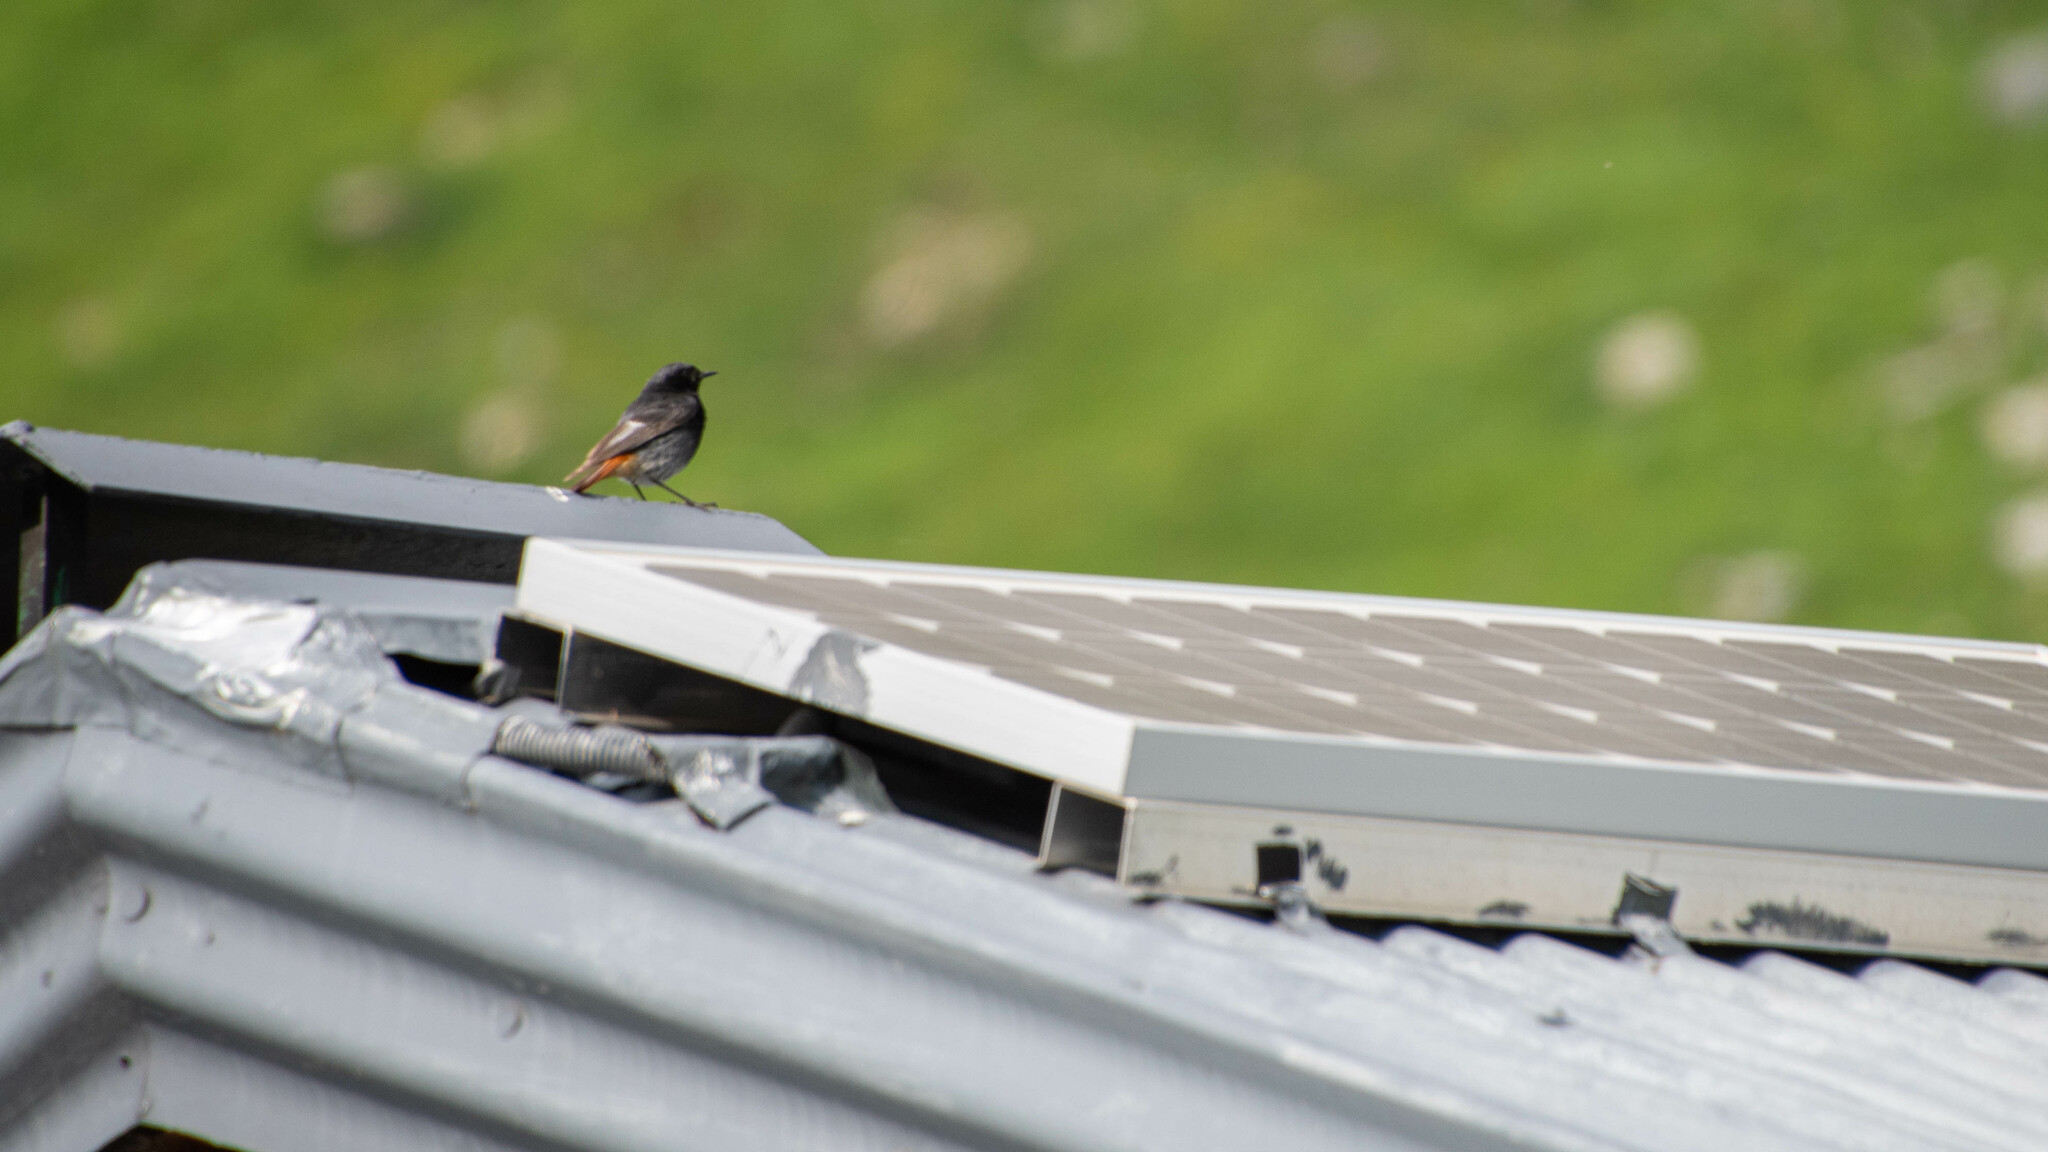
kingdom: Animalia
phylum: Chordata
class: Aves
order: Passeriformes
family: Muscicapidae
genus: Phoenicurus
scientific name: Phoenicurus ochruros
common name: Black redstart
